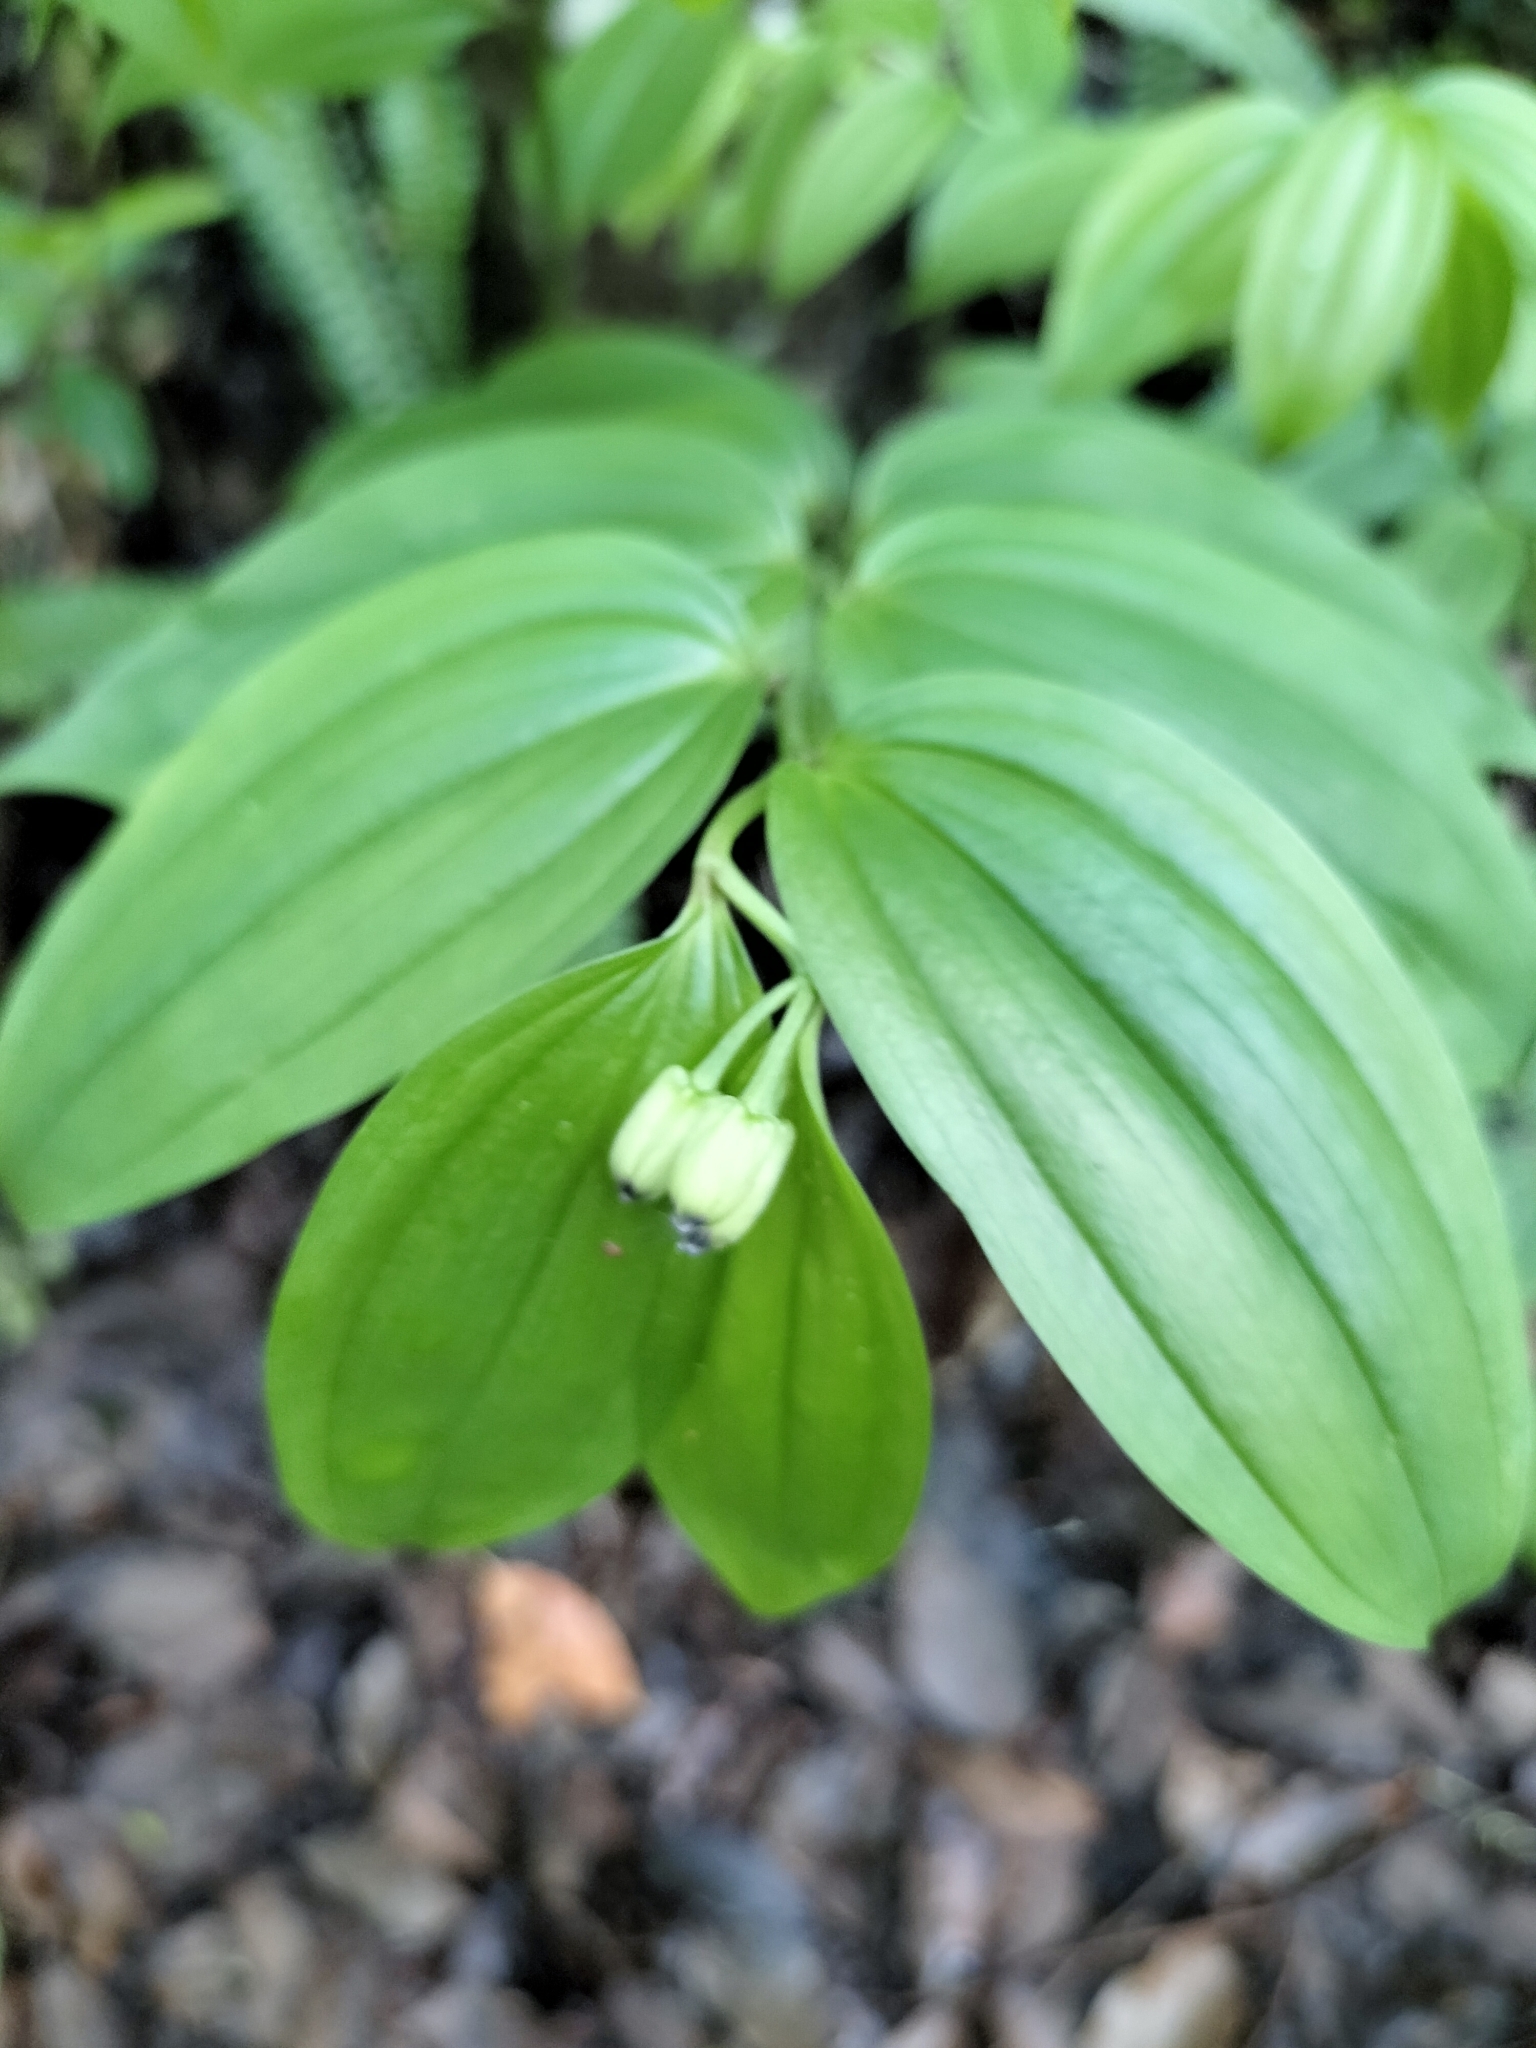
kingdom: Plantae
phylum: Tracheophyta
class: Liliopsida
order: Liliales
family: Colchicaceae
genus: Disporum
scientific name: Disporum kawakamii
